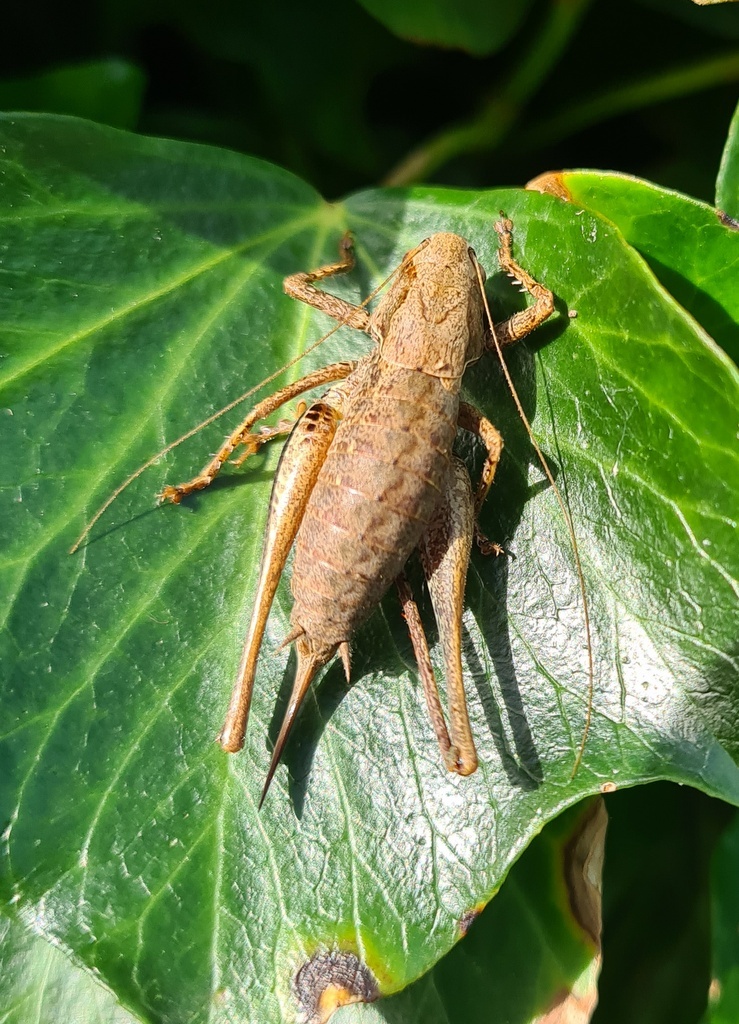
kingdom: Animalia
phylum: Arthropoda
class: Insecta
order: Orthoptera
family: Tettigoniidae
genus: Pholidoptera
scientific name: Pholidoptera griseoaptera
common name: Dark bush-cricket
